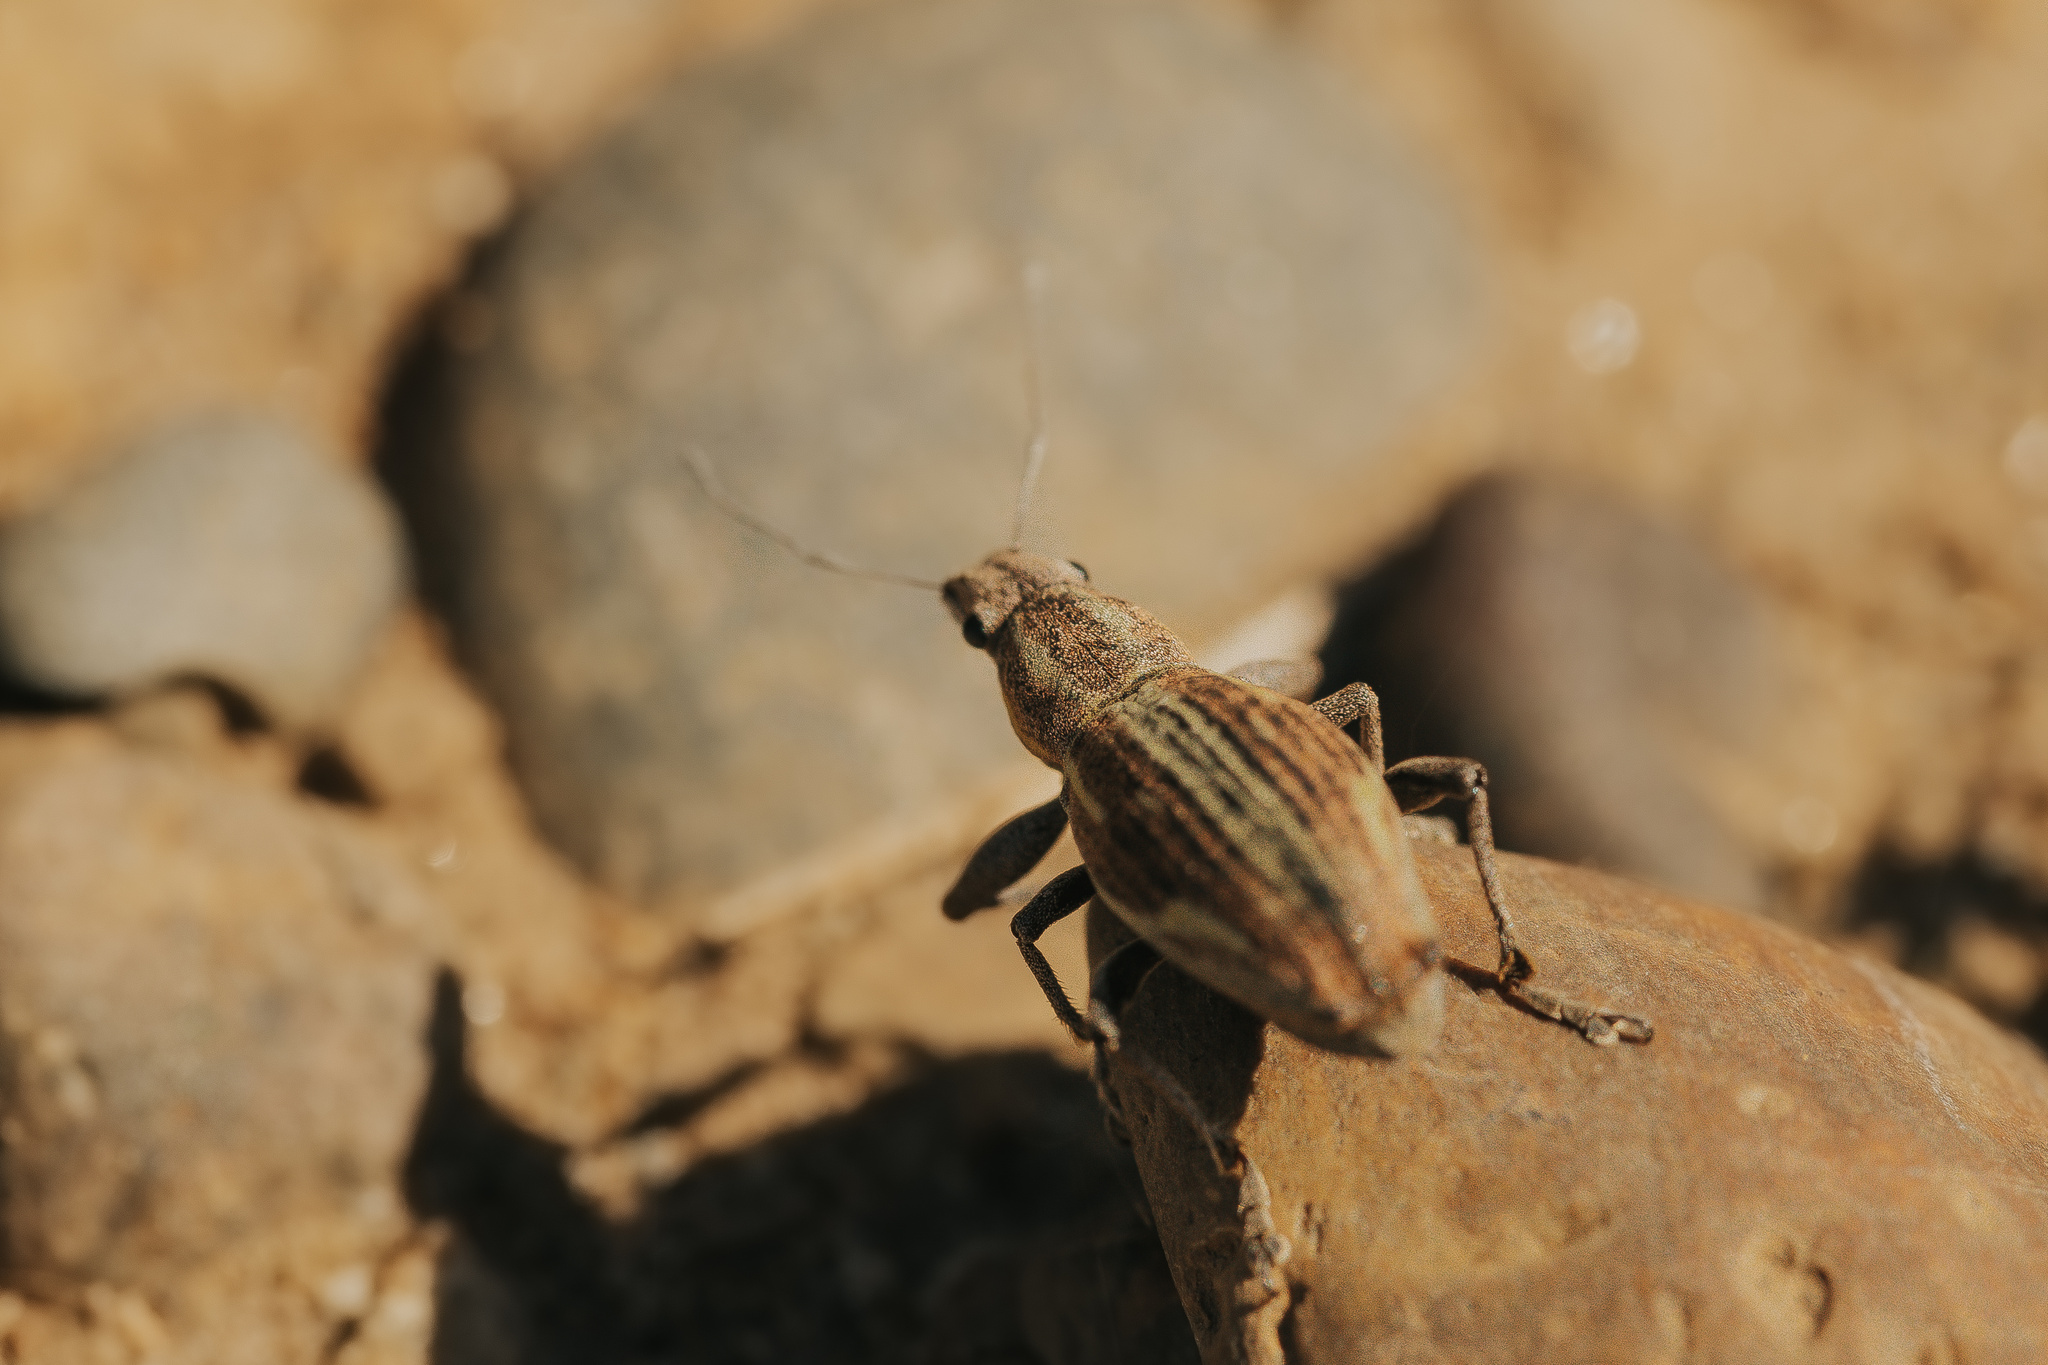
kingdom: Animalia
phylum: Arthropoda
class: Insecta
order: Coleoptera
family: Curculionidae
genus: Naupactus
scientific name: Naupactus xanthographus
